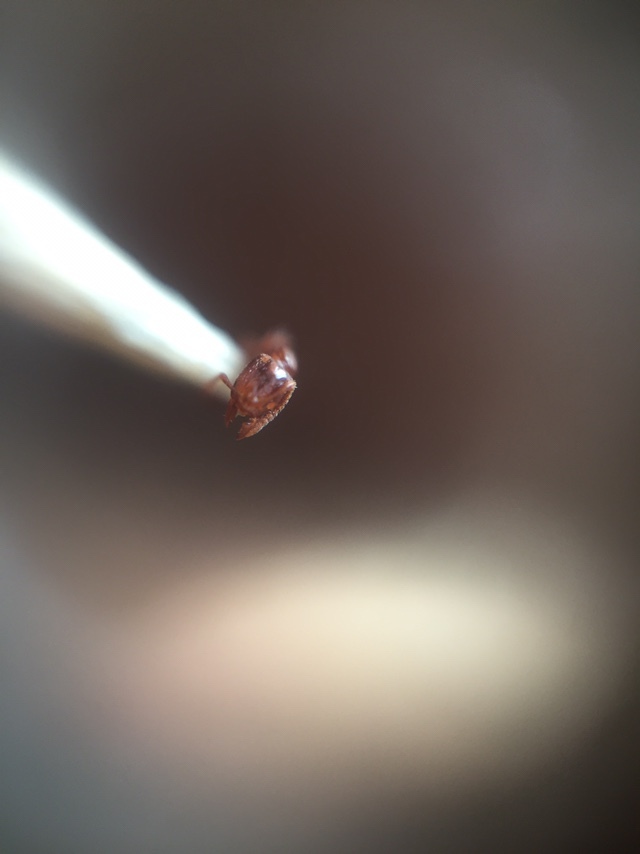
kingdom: Animalia
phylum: Arthropoda
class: Insecta
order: Hymenoptera
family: Formicidae
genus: Hypoponera
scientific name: Hypoponera
